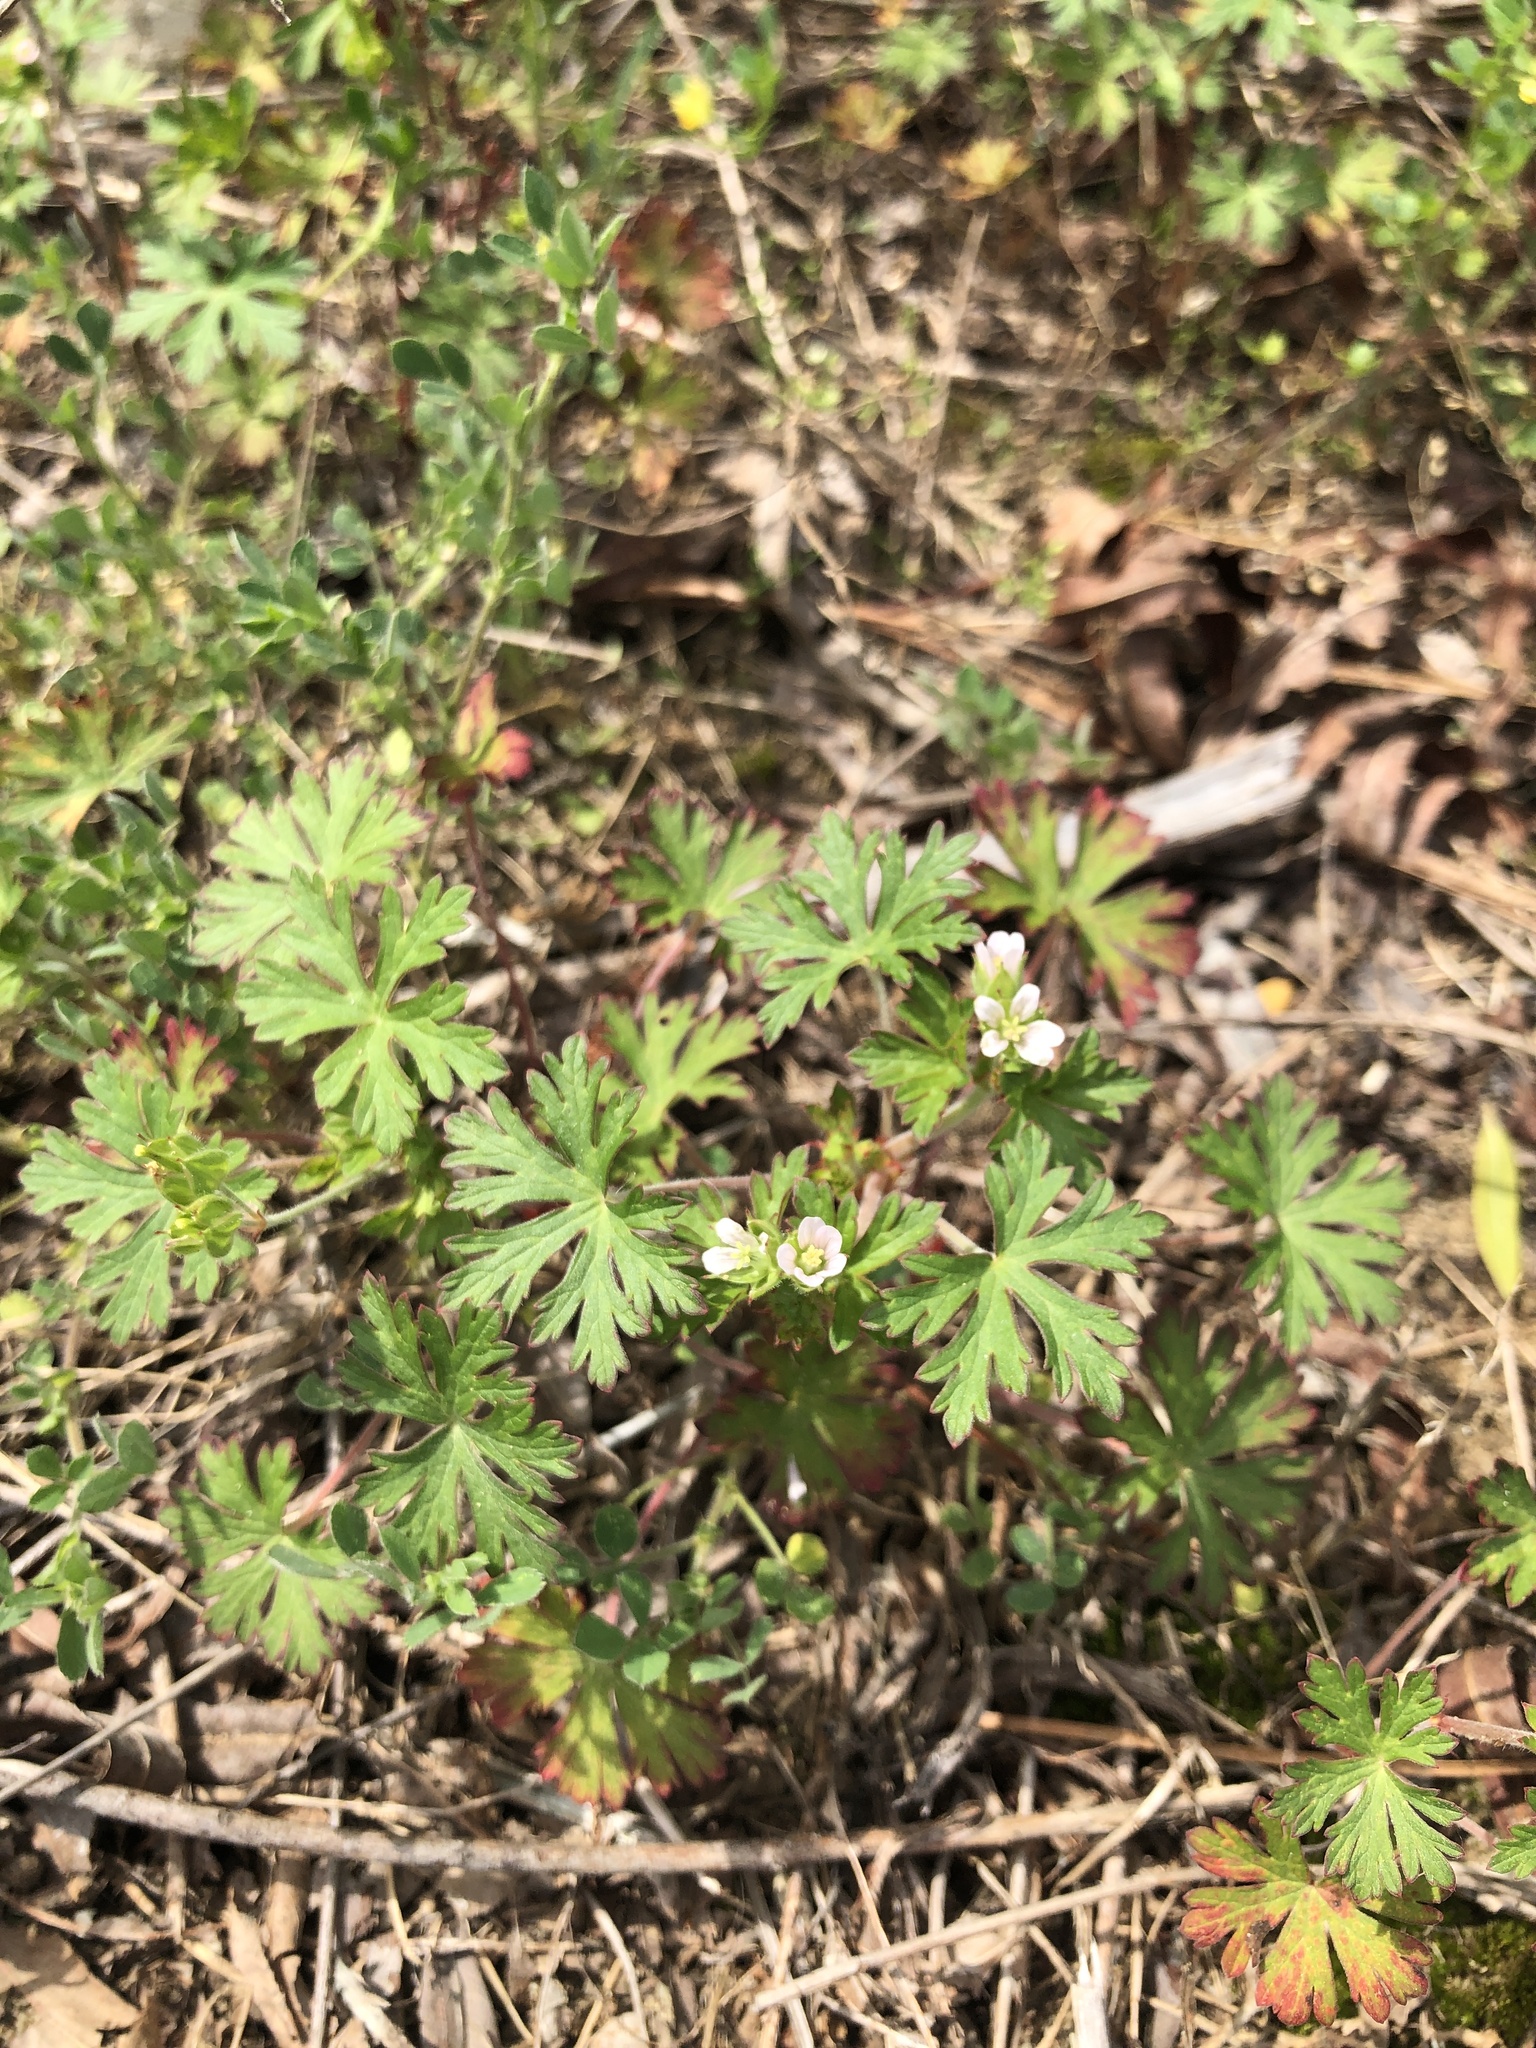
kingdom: Plantae
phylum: Tracheophyta
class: Magnoliopsida
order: Geraniales
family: Geraniaceae
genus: Geranium
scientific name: Geranium carolinianum
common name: Carolina crane's-bill
